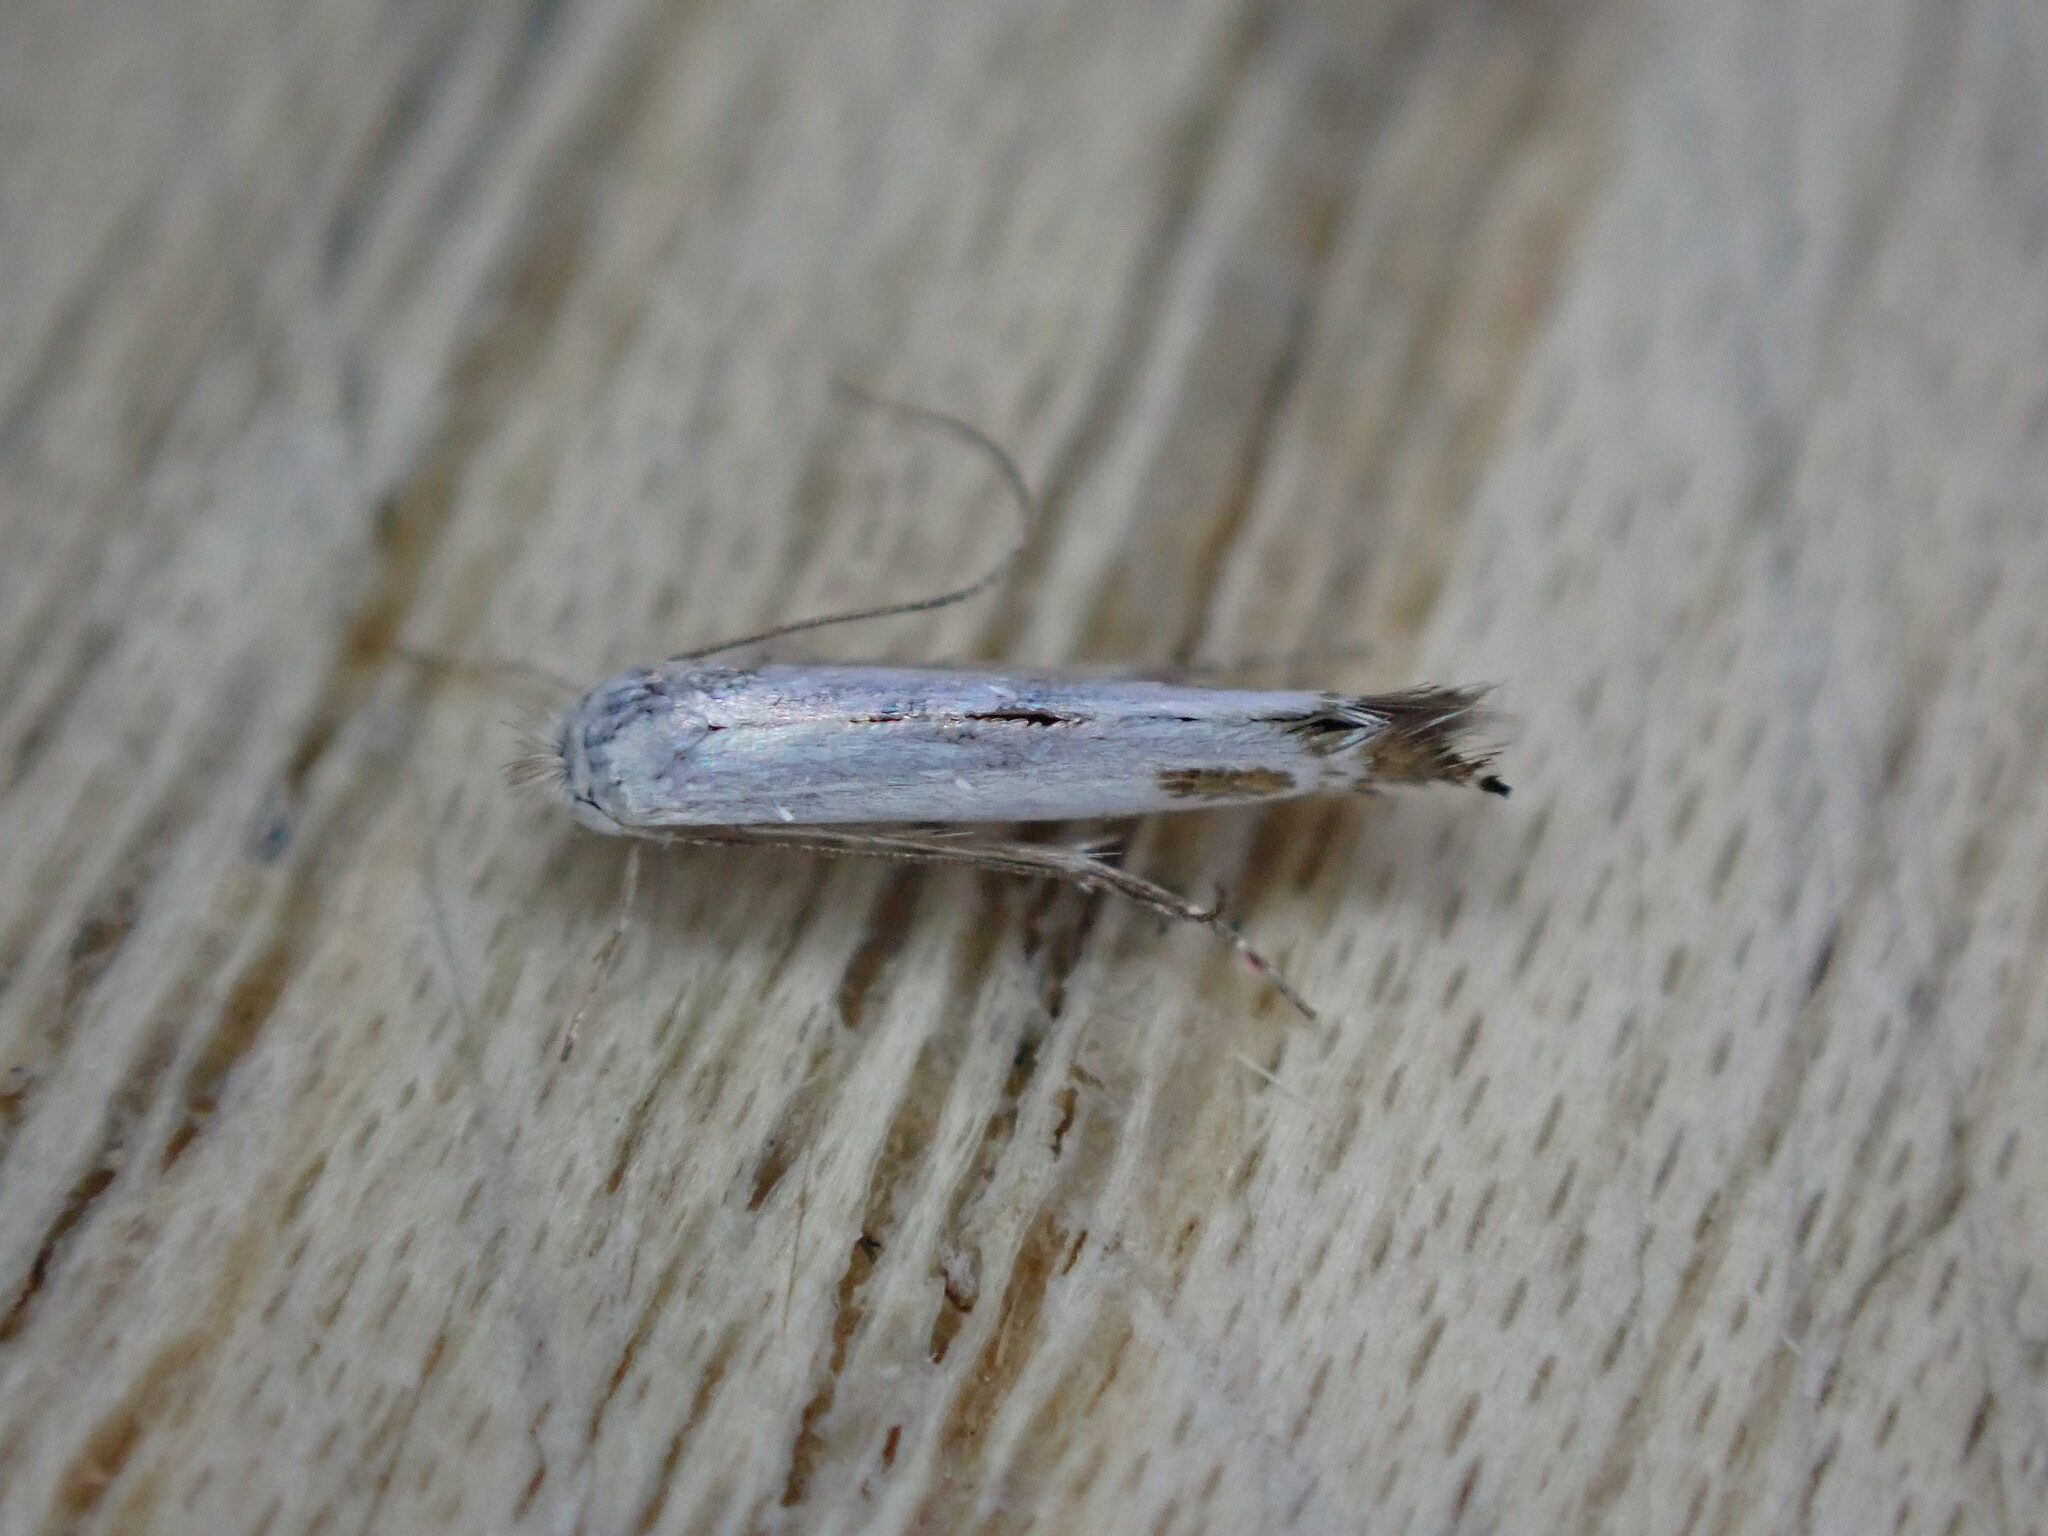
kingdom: Animalia
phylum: Arthropoda
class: Insecta
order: Lepidoptera
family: Lyonetiidae
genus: Lyonetia
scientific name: Lyonetia clerkella
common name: Apple leaf miner
